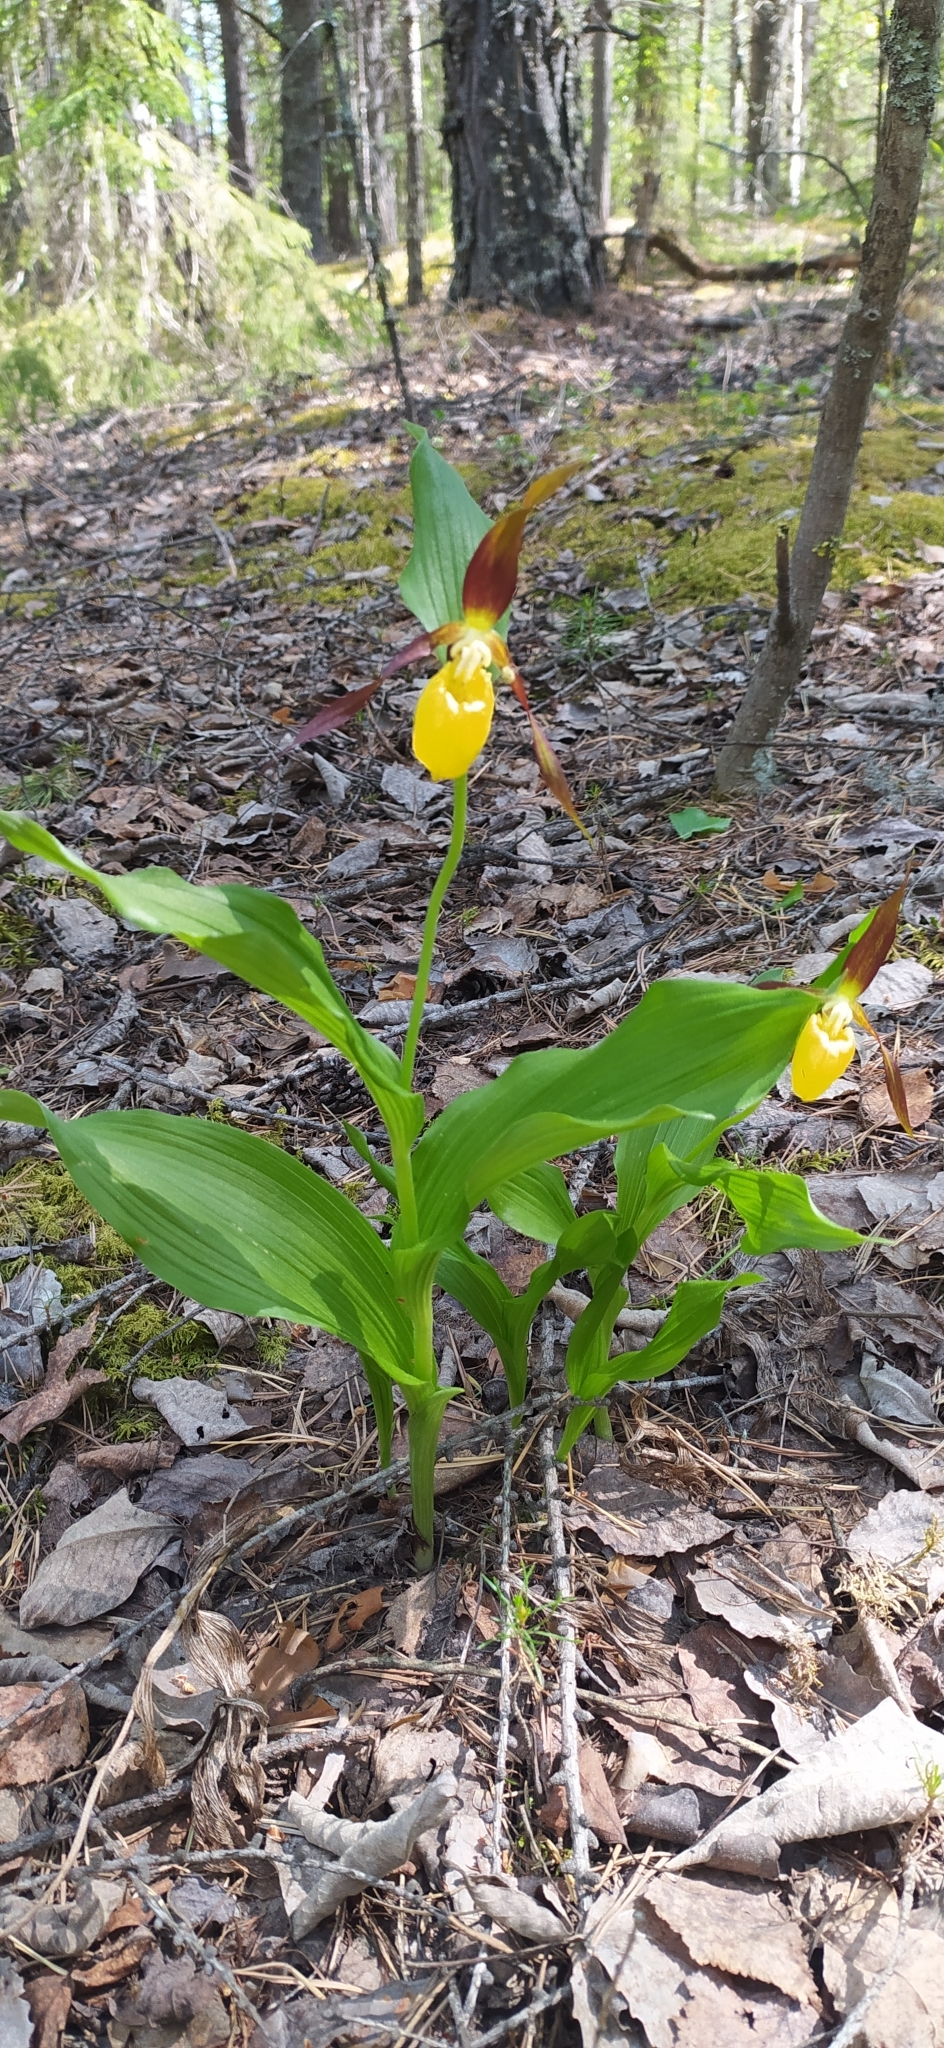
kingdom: Plantae
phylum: Tracheophyta
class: Liliopsida
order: Asparagales
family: Orchidaceae
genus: Cypripedium
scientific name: Cypripedium calceolus
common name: Lady's-slipper
